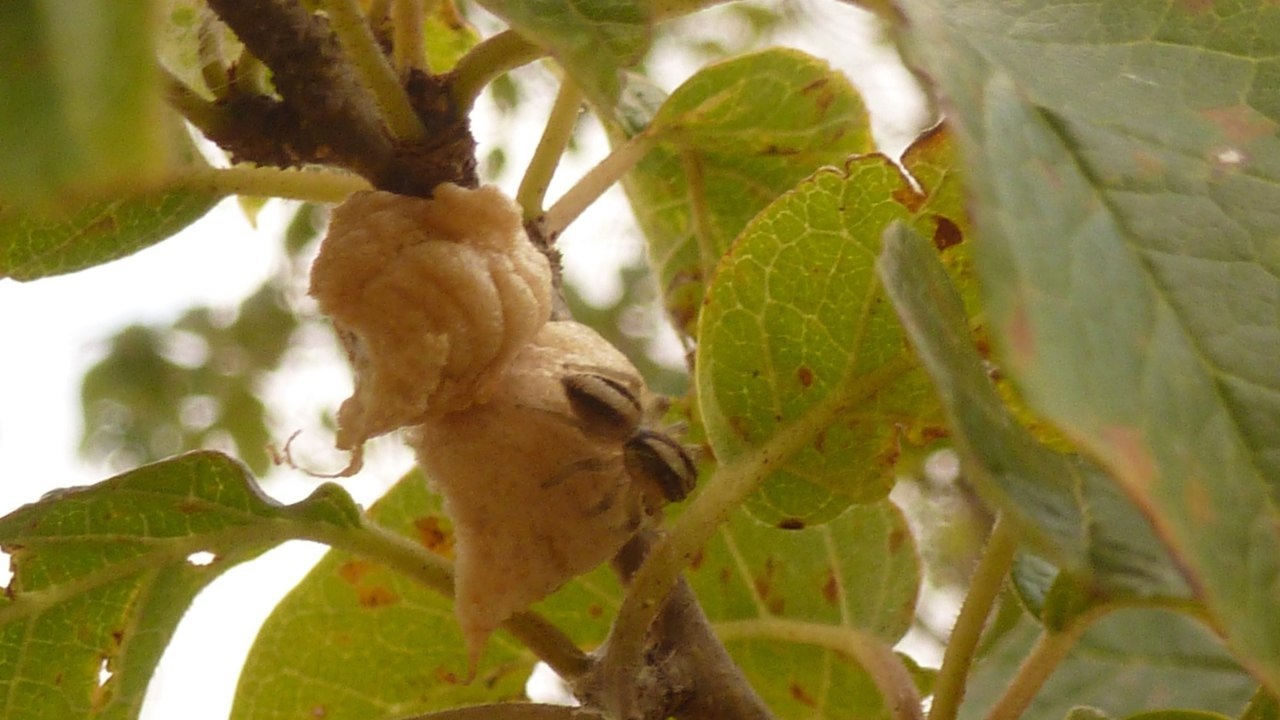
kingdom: Animalia
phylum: Arthropoda
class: Arachnida
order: Araneae
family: Salticidae
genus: Megafreya
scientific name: Megafreya sutrix
